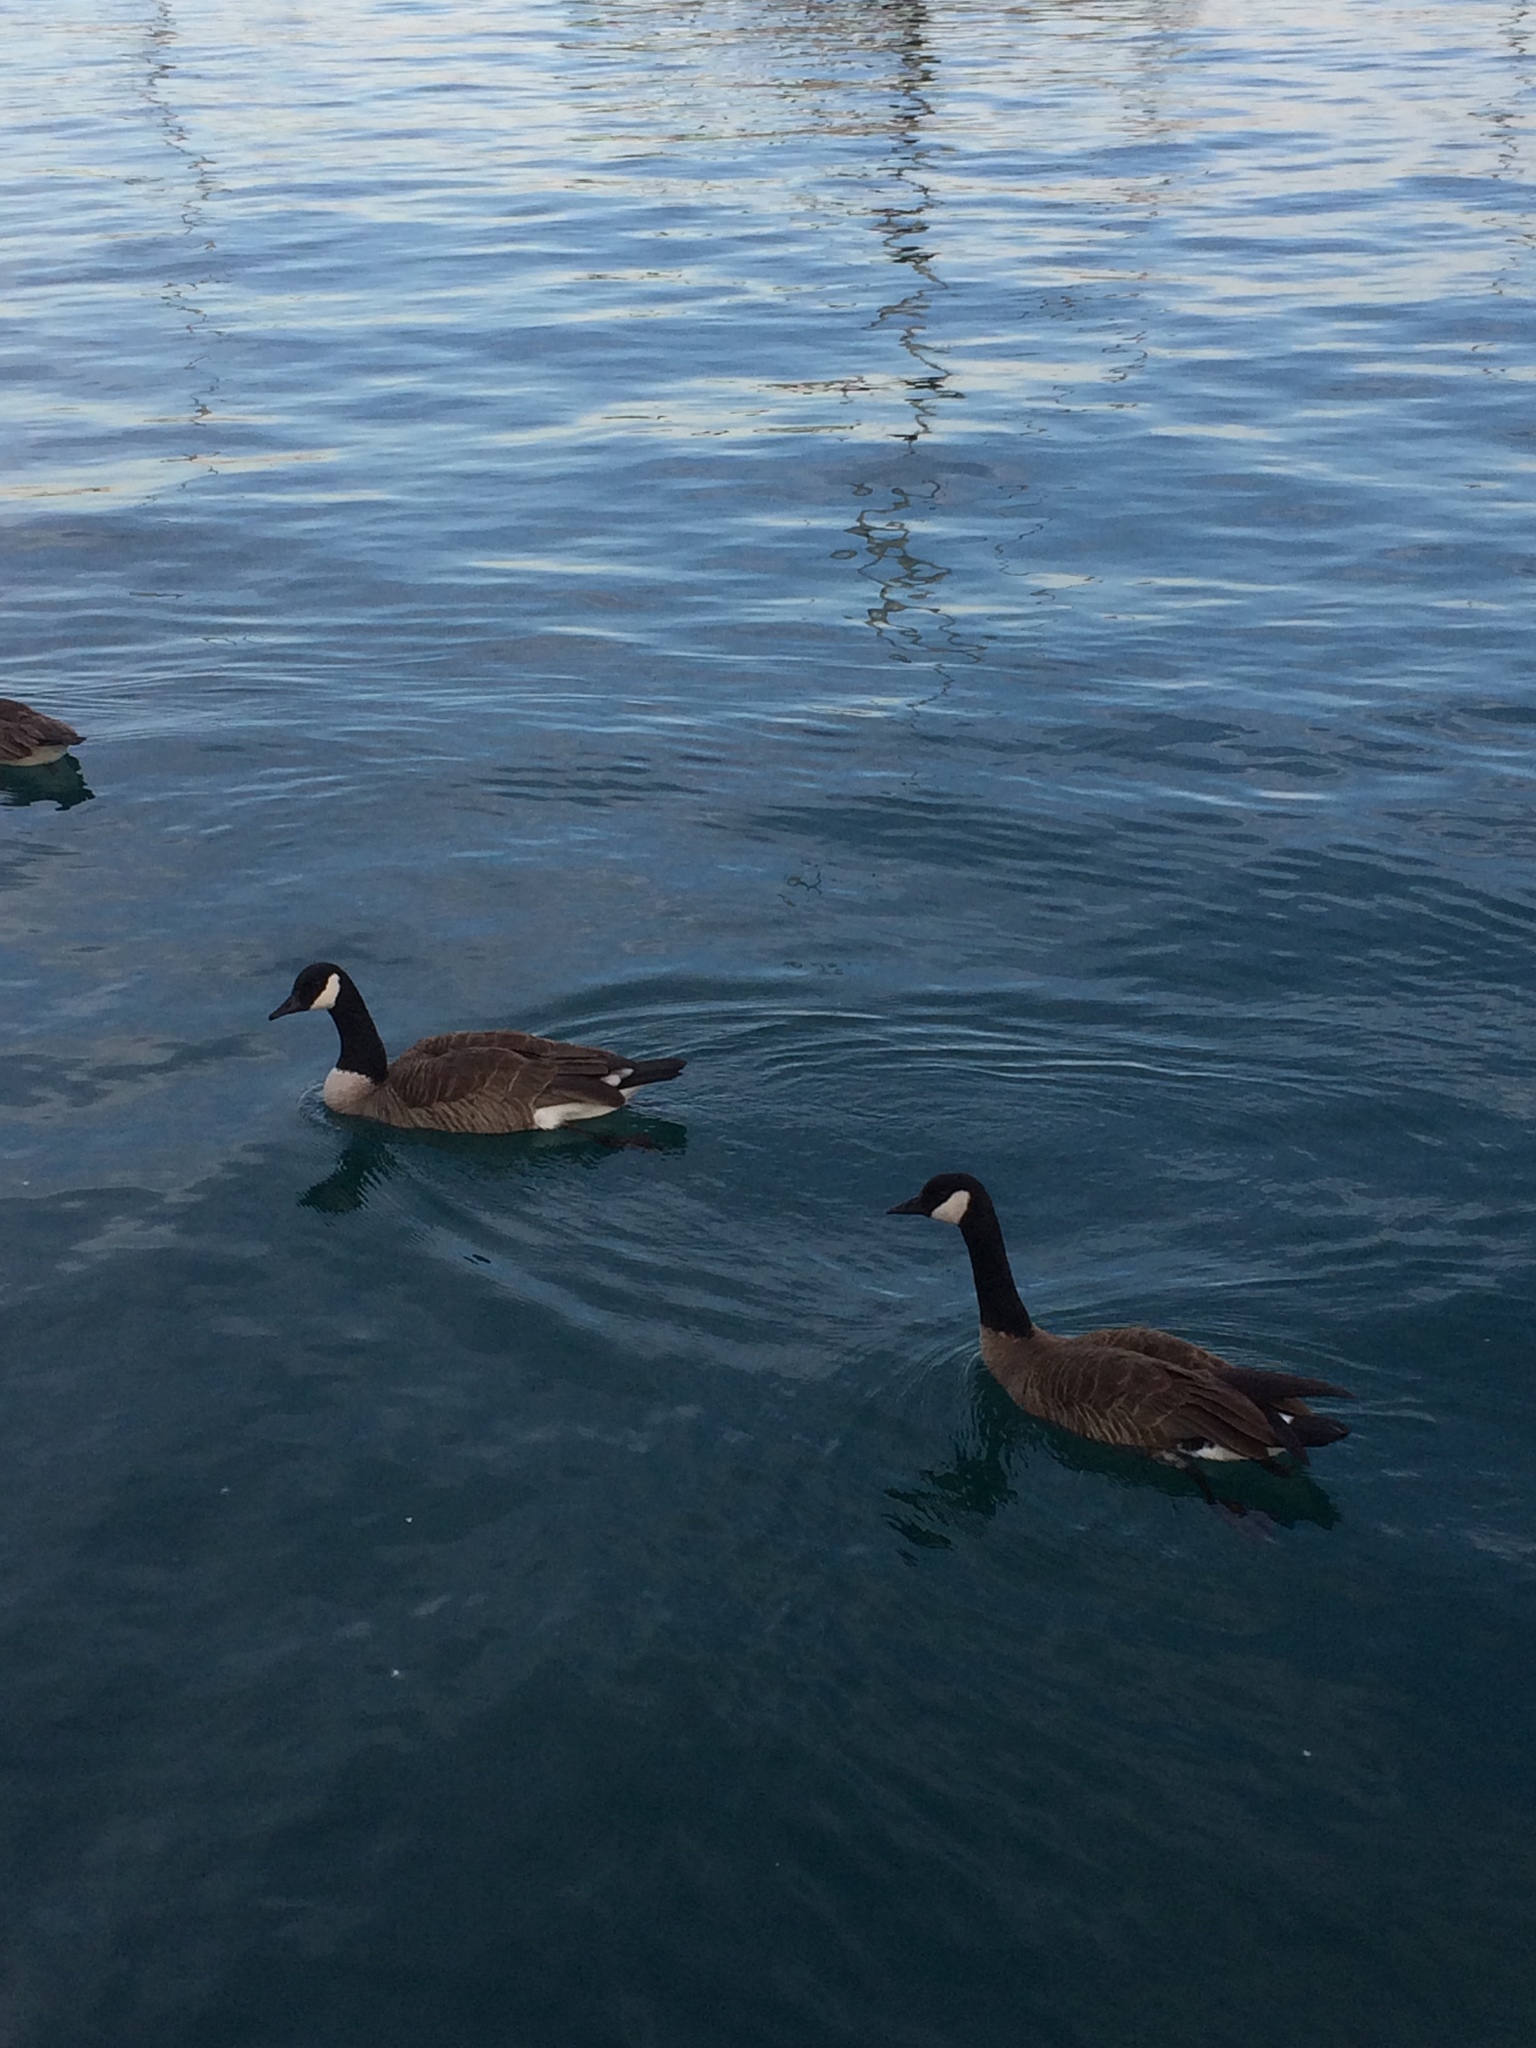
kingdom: Animalia
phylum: Chordata
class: Aves
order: Anseriformes
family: Anatidae
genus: Branta
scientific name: Branta canadensis
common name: Canada goose
